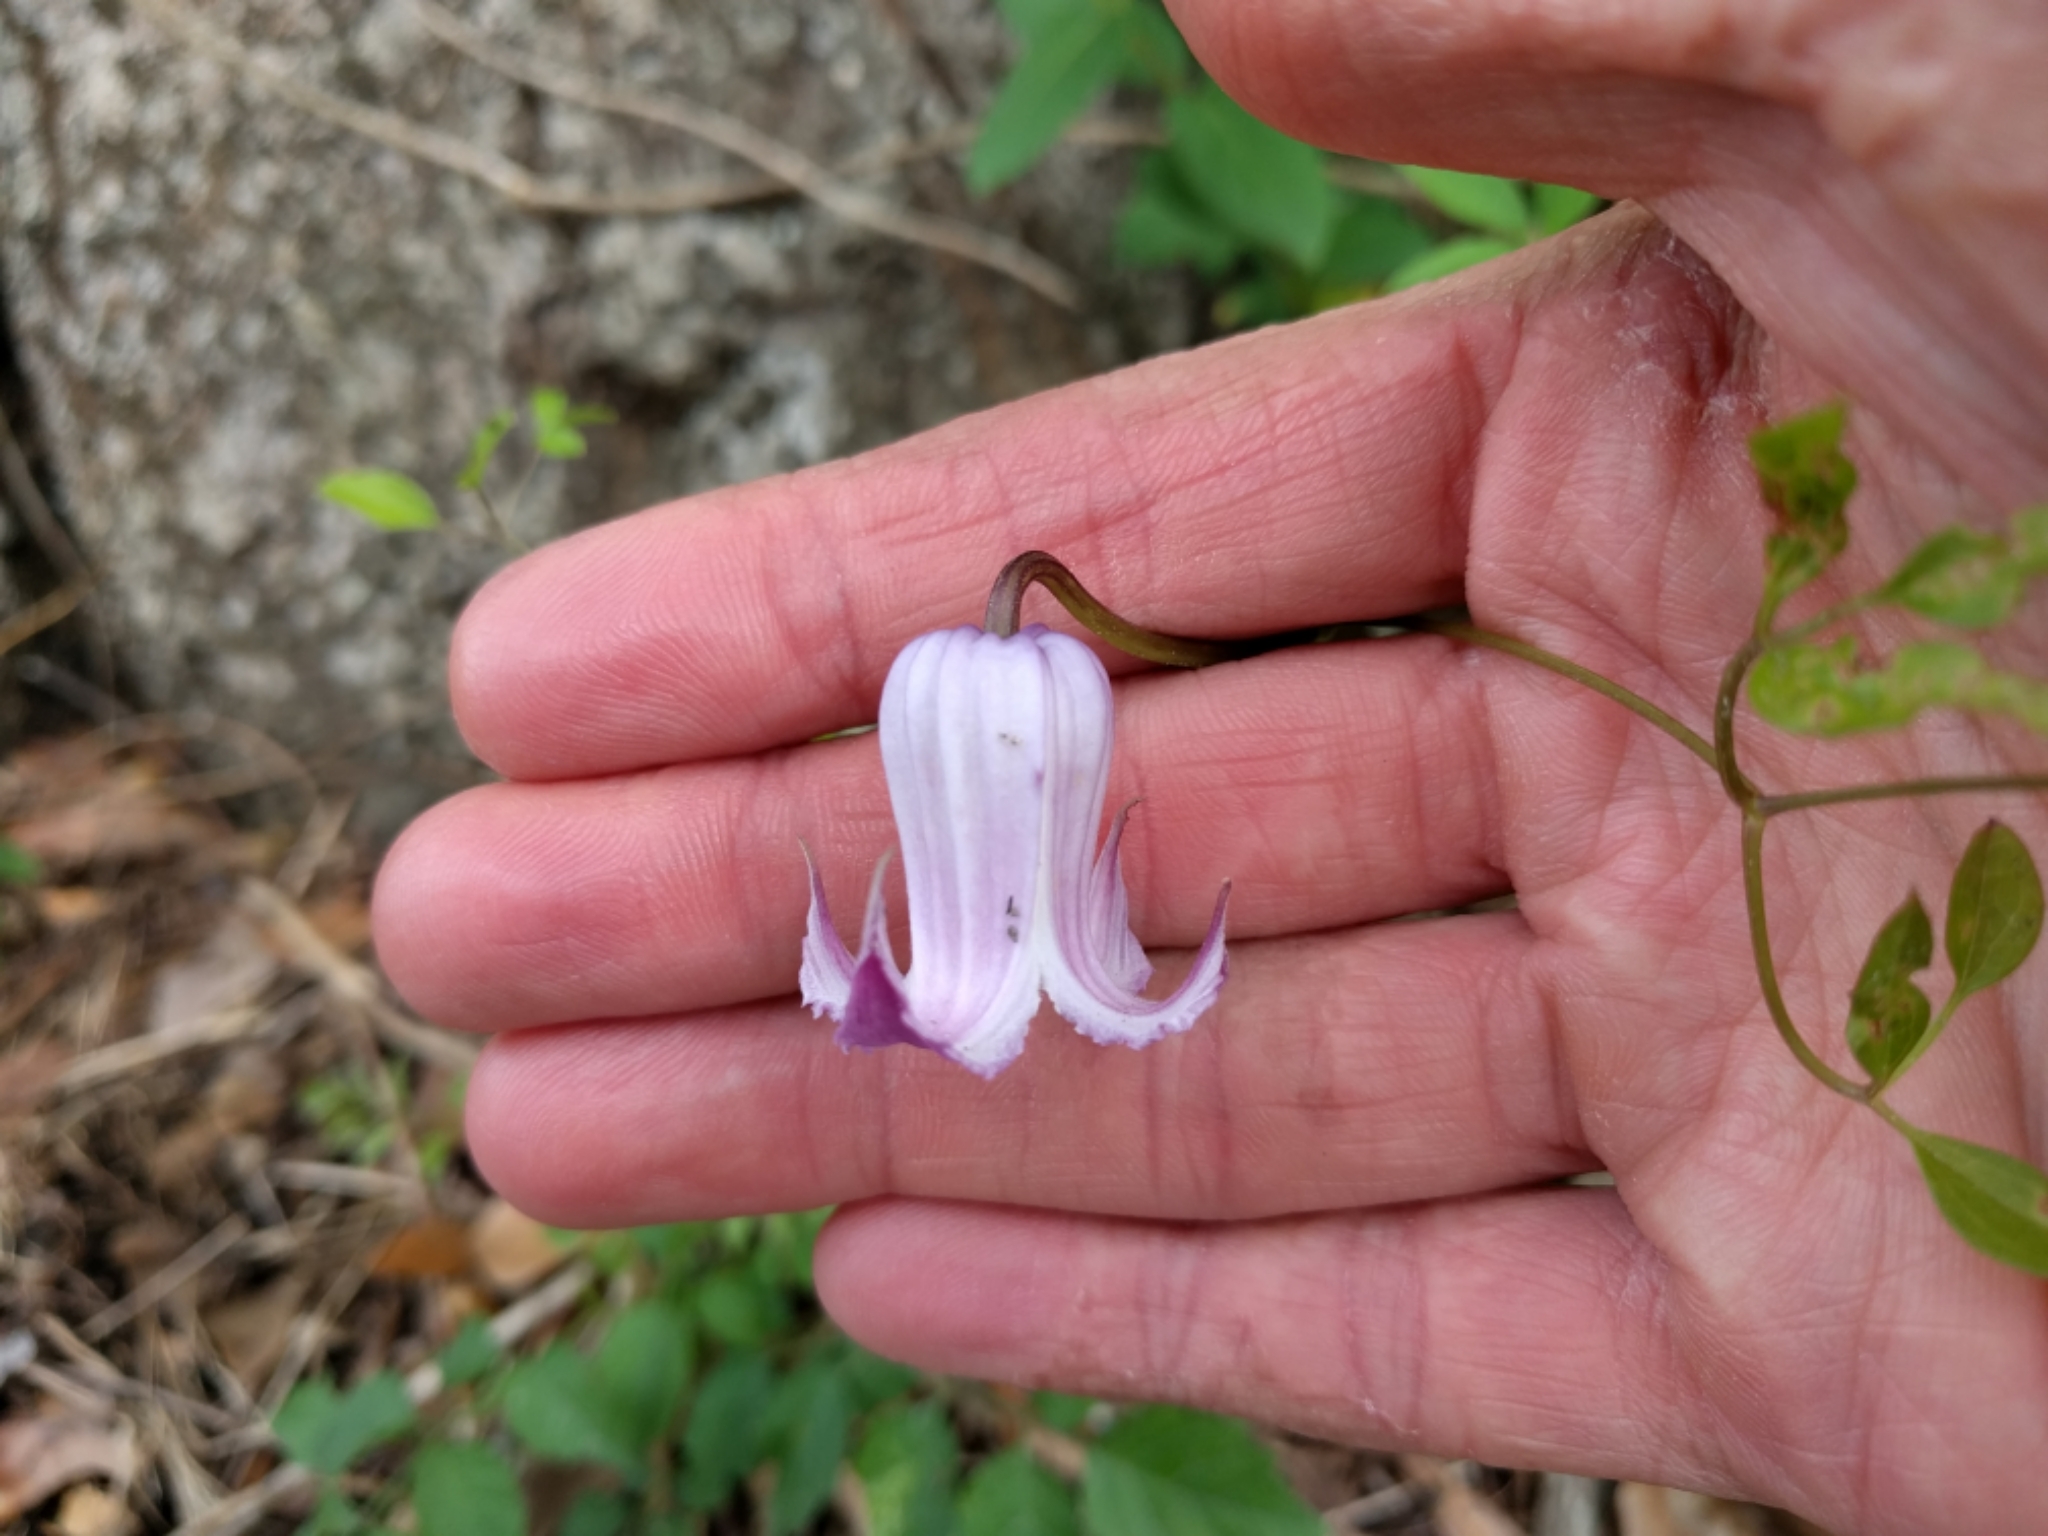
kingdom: Plantae
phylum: Tracheophyta
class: Magnoliopsida
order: Ranunculales
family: Ranunculaceae
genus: Clematis
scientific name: Clematis pitcheri
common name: Bellflower clematis
